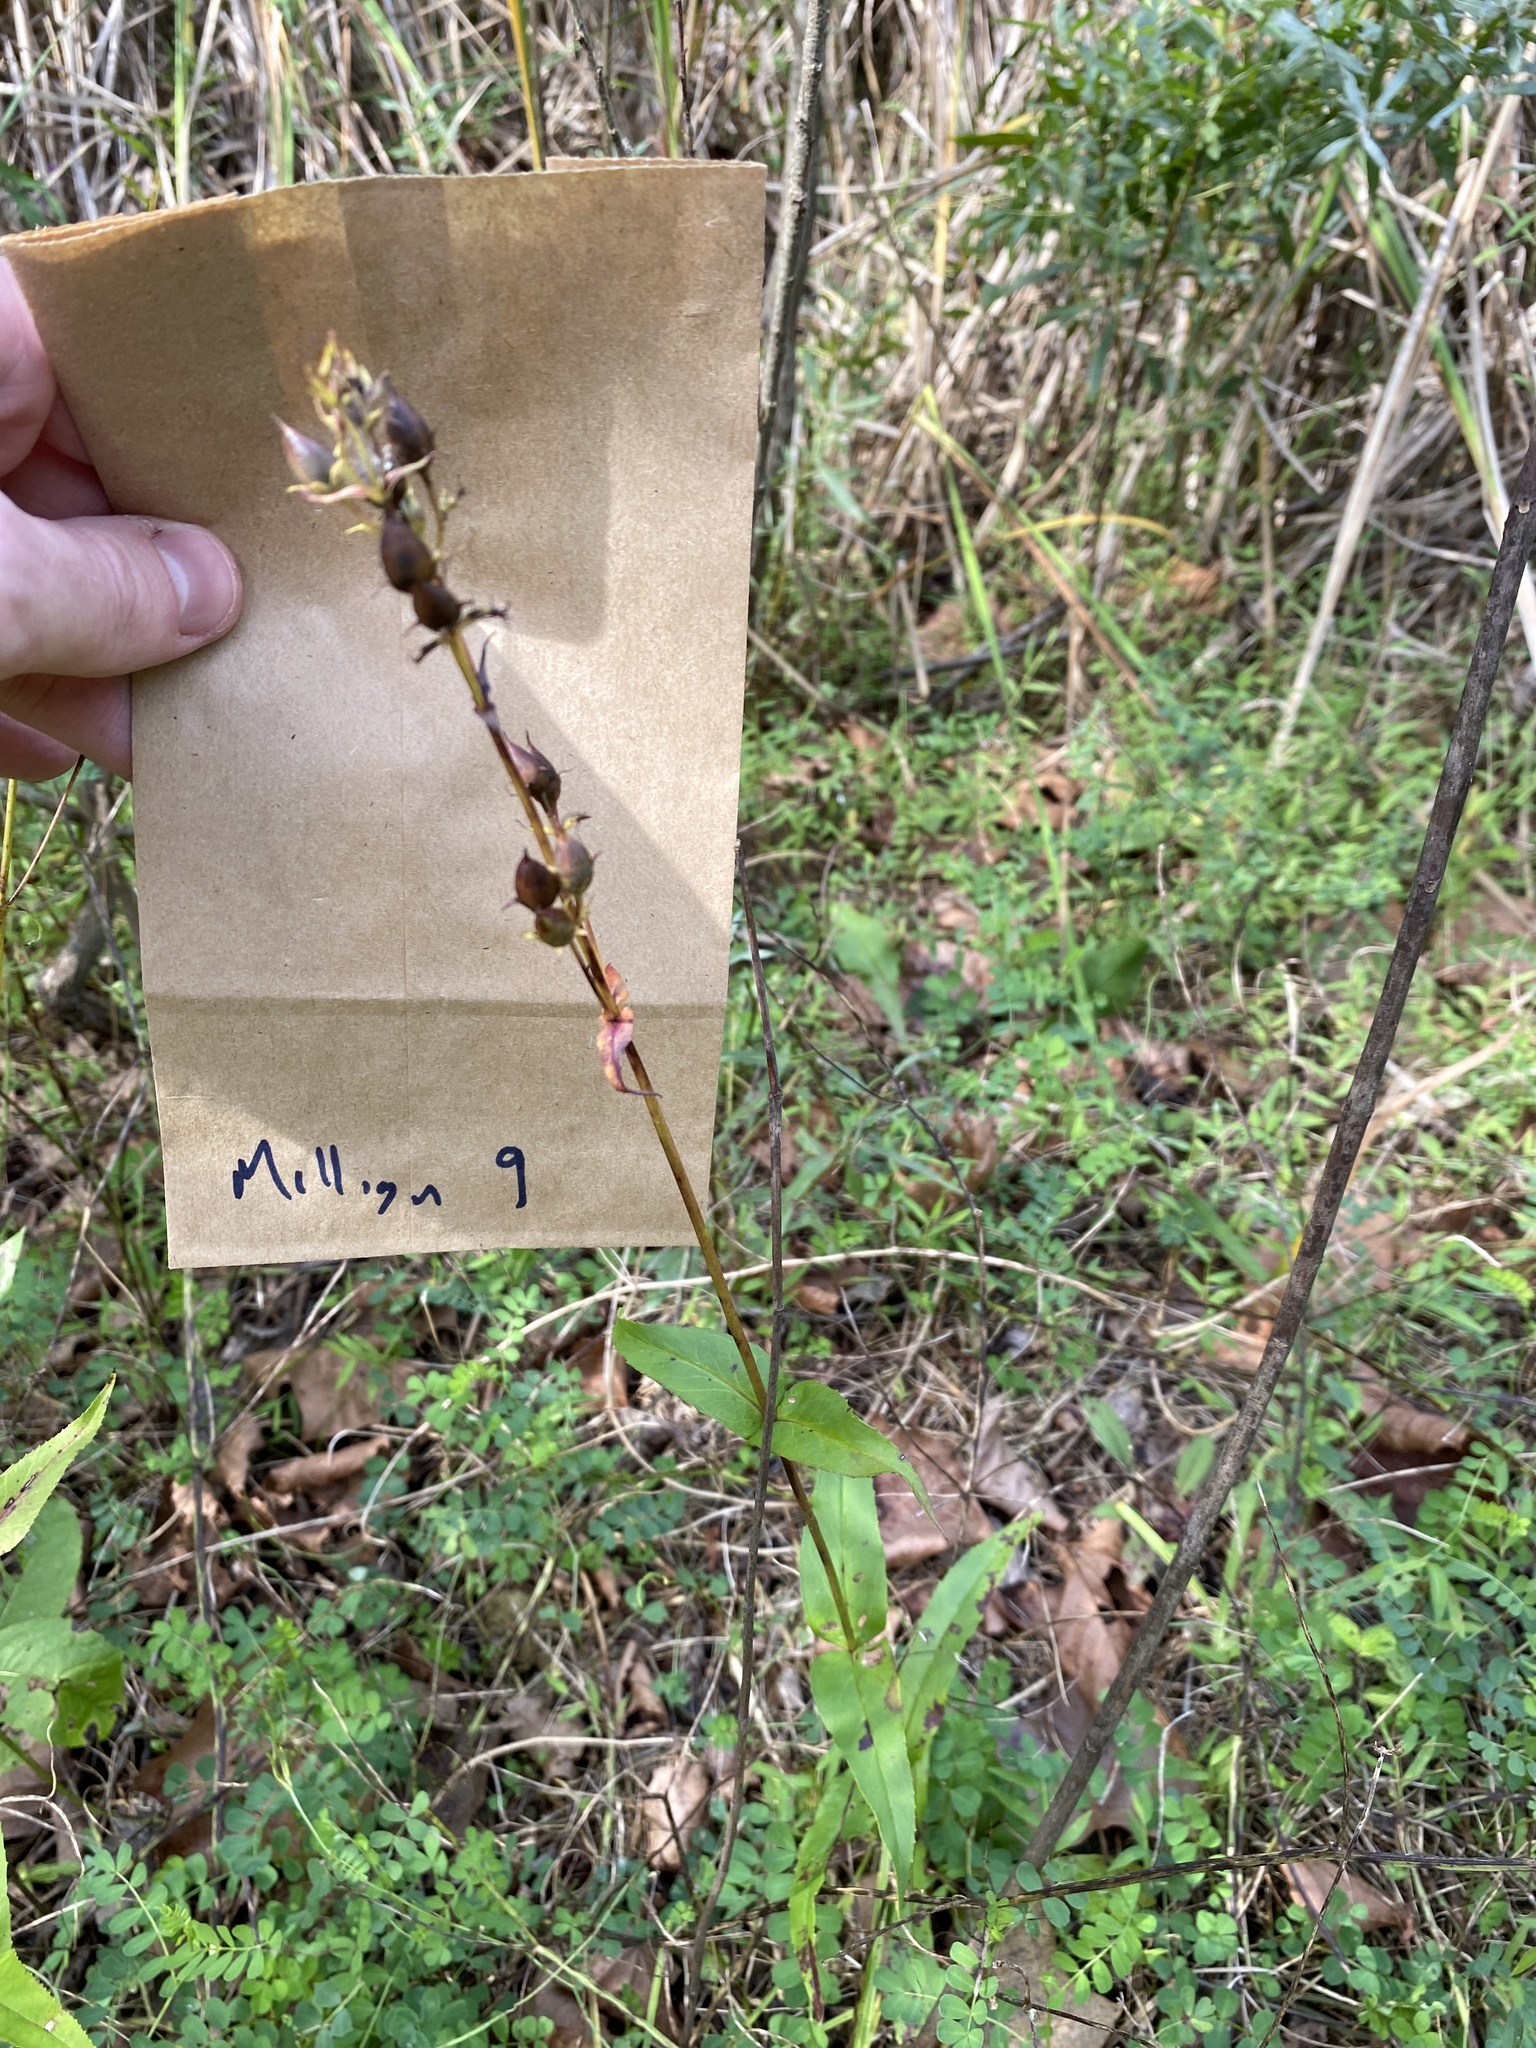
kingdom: Plantae
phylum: Tracheophyta
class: Magnoliopsida
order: Lamiales
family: Plantaginaceae
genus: Penstemon
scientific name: Penstemon digitalis
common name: Foxglove beardtongue
